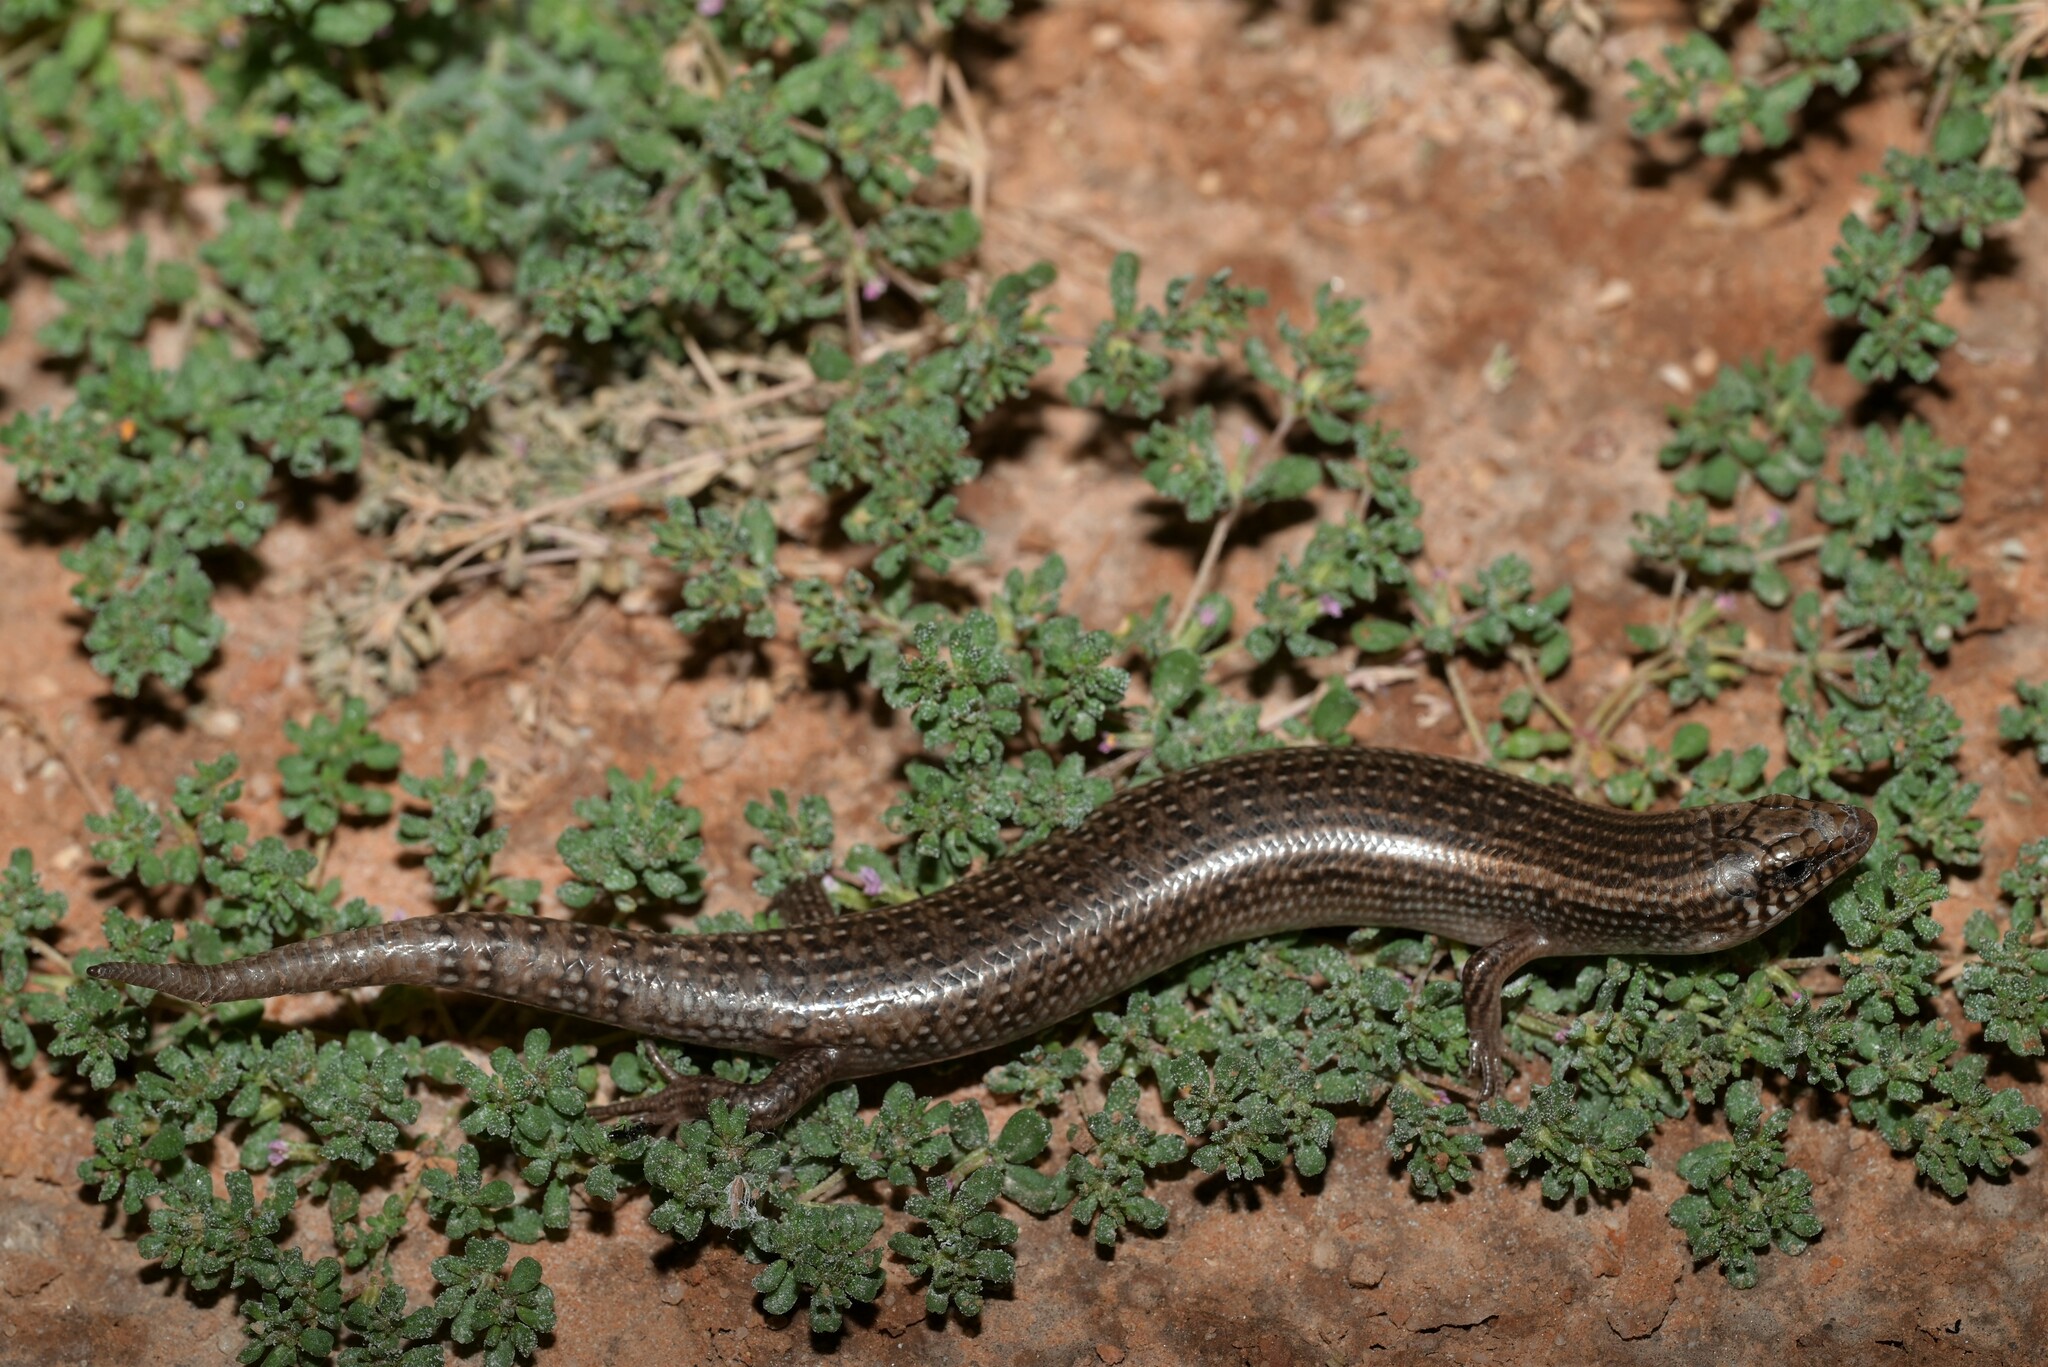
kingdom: Animalia
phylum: Chordata
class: Squamata
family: Scincidae
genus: Chalcides
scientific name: Chalcides ocellatus
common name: Ocellated skink
